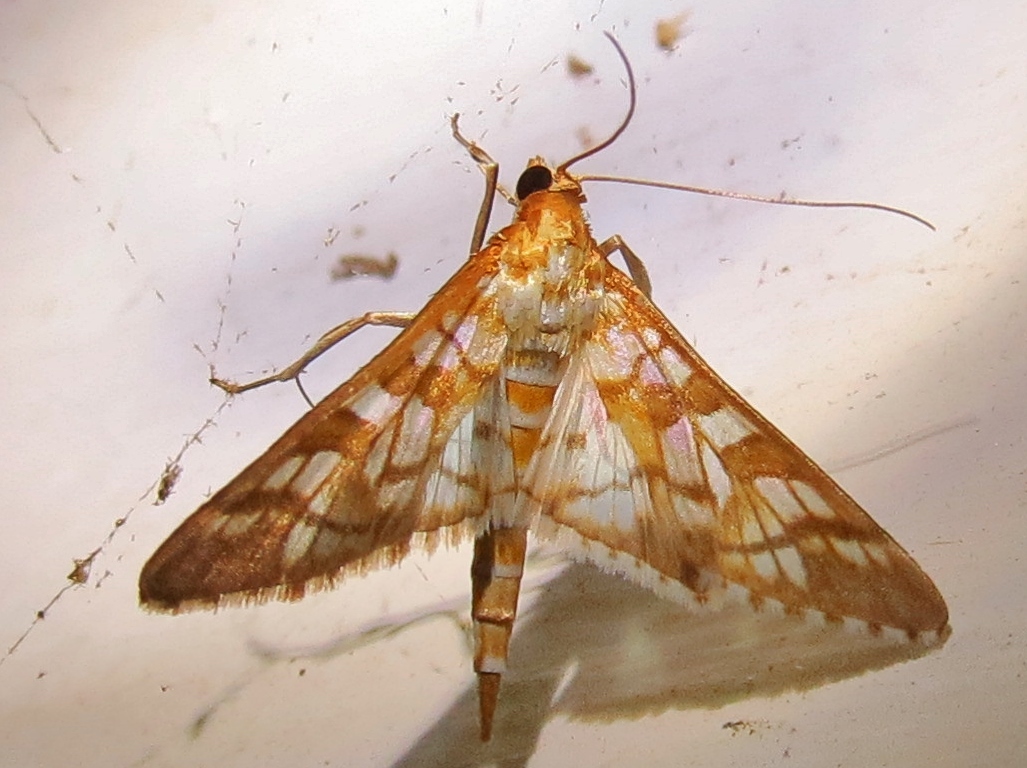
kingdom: Animalia
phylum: Arthropoda
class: Insecta
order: Lepidoptera
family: Crambidae
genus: Epipagis
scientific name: Epipagis fenestralis
